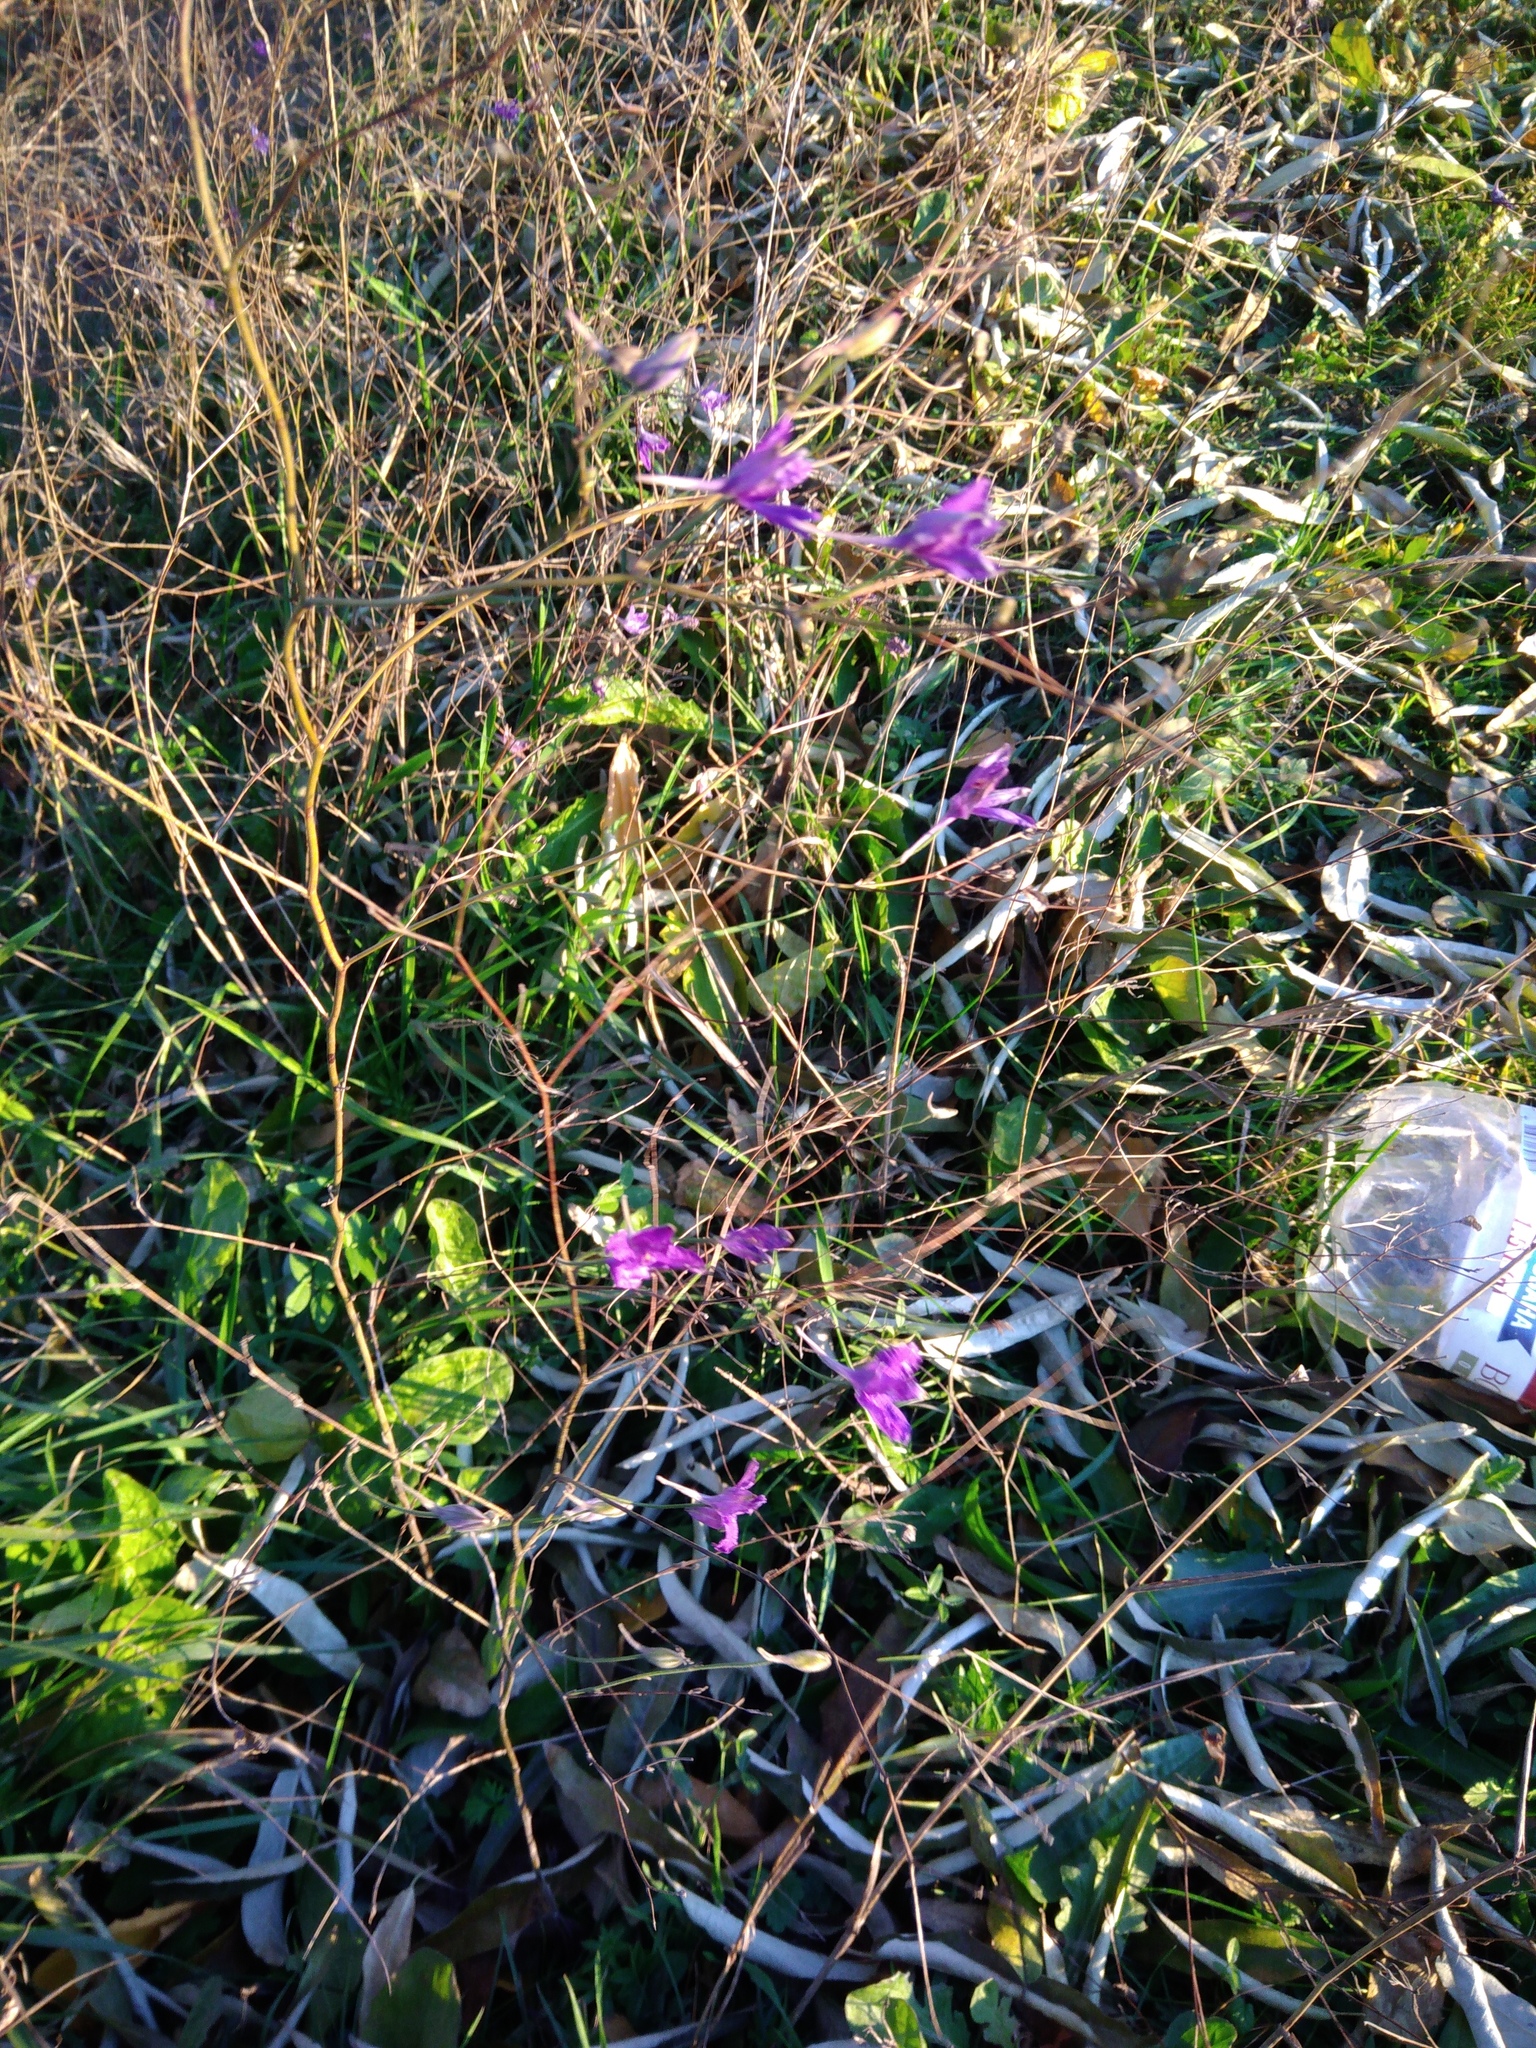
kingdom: Plantae
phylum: Tracheophyta
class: Magnoliopsida
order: Ranunculales
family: Ranunculaceae
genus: Delphinium
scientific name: Delphinium consolida
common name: Branching larkspur
